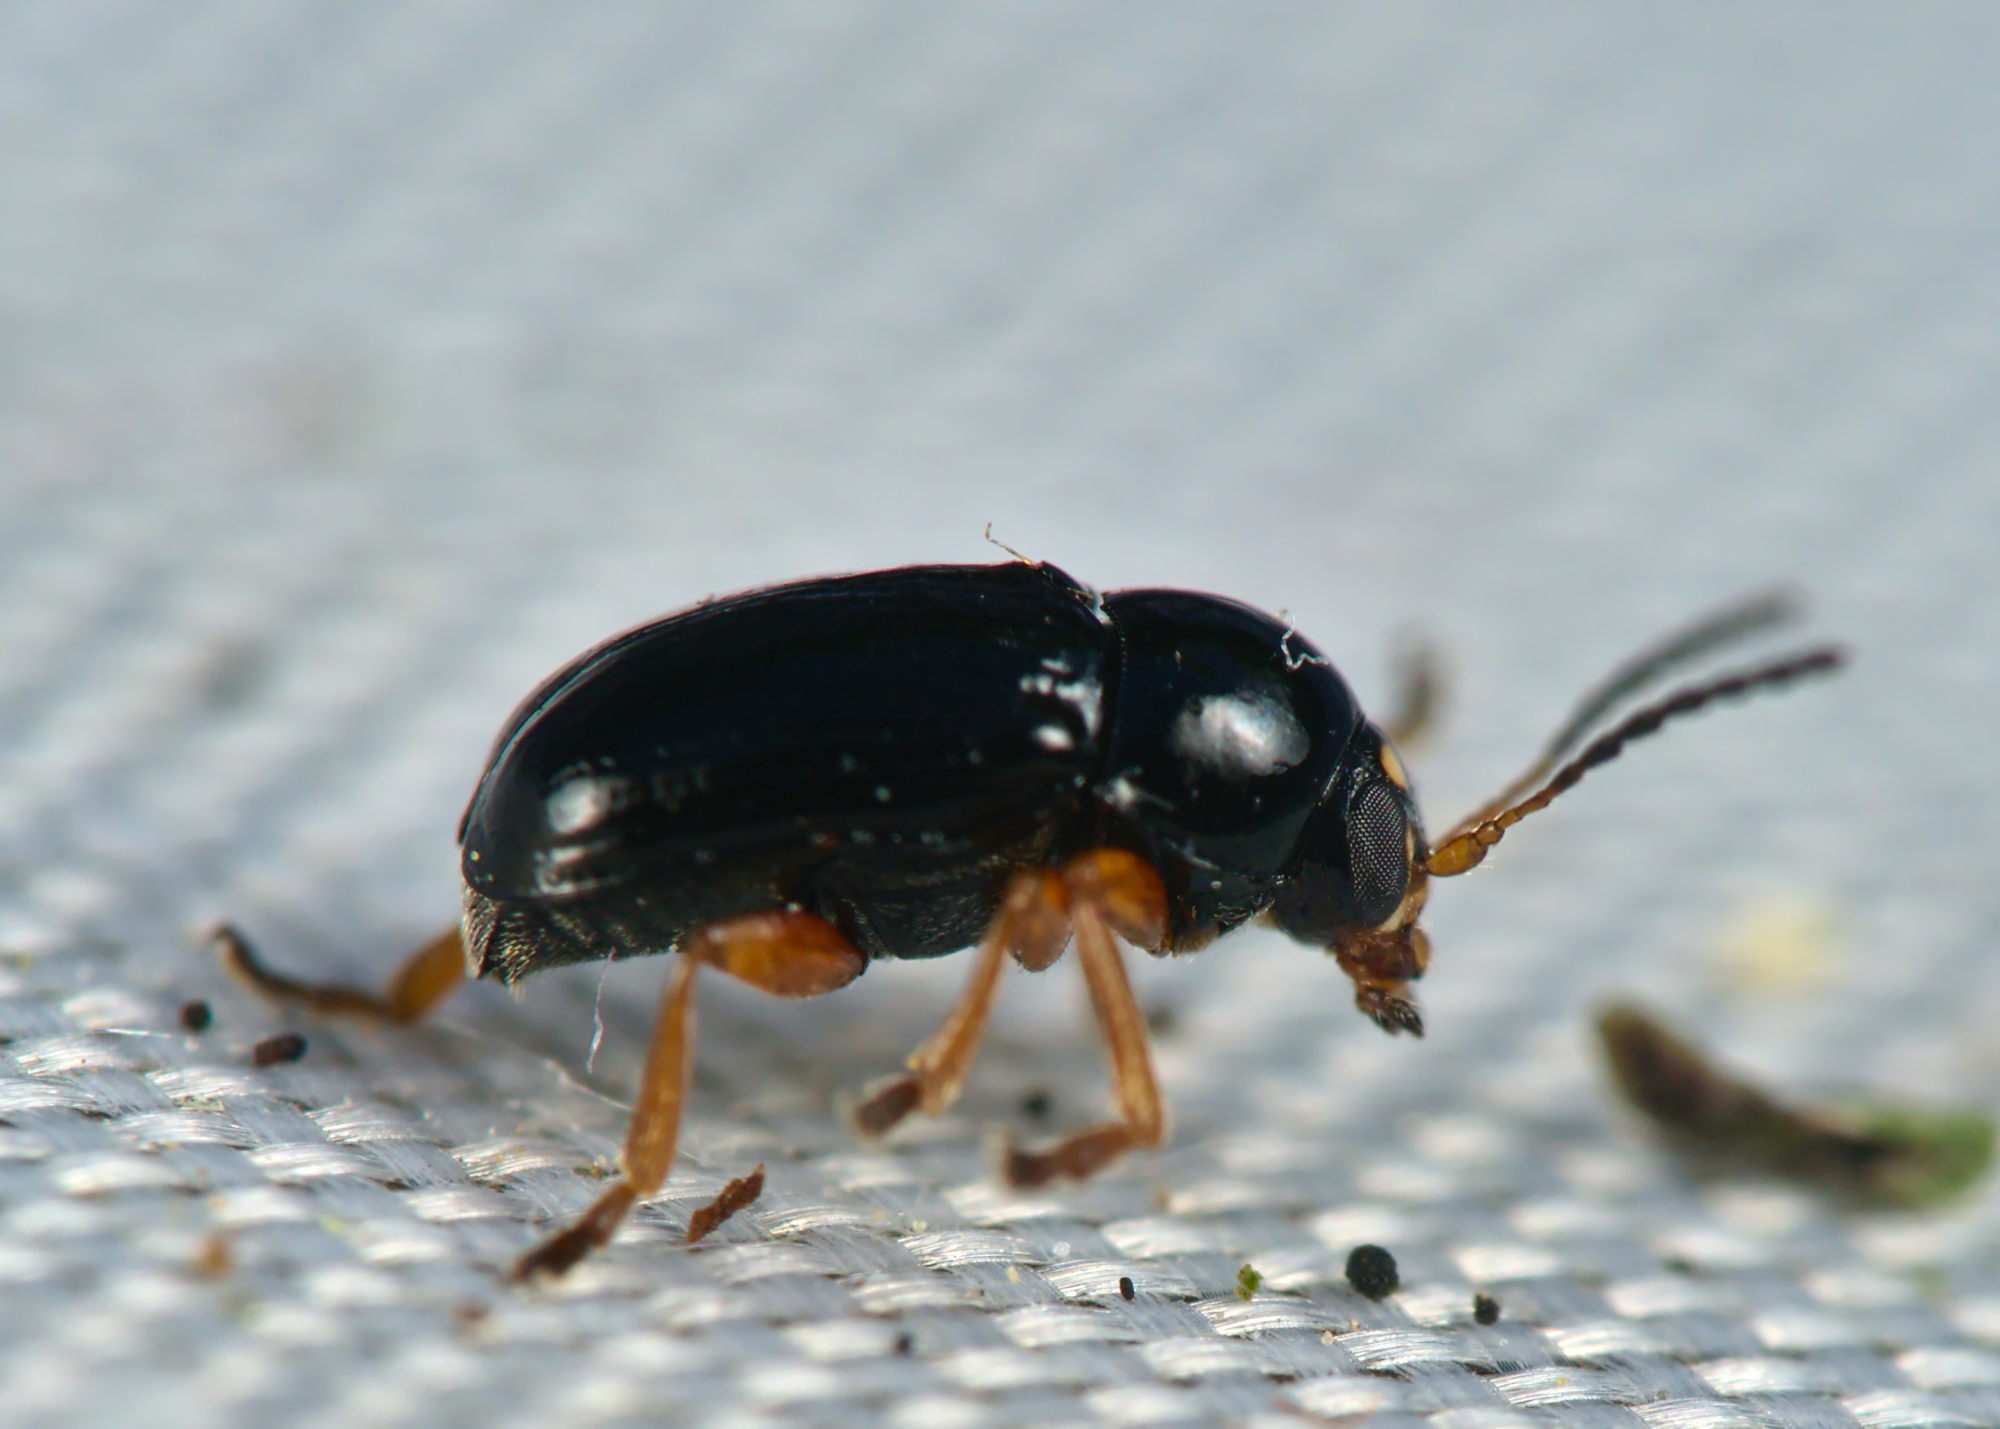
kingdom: Animalia
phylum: Arthropoda
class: Insecta
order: Coleoptera
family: Chrysomelidae
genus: Cryptocephalus
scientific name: Cryptocephalus ocellatus
